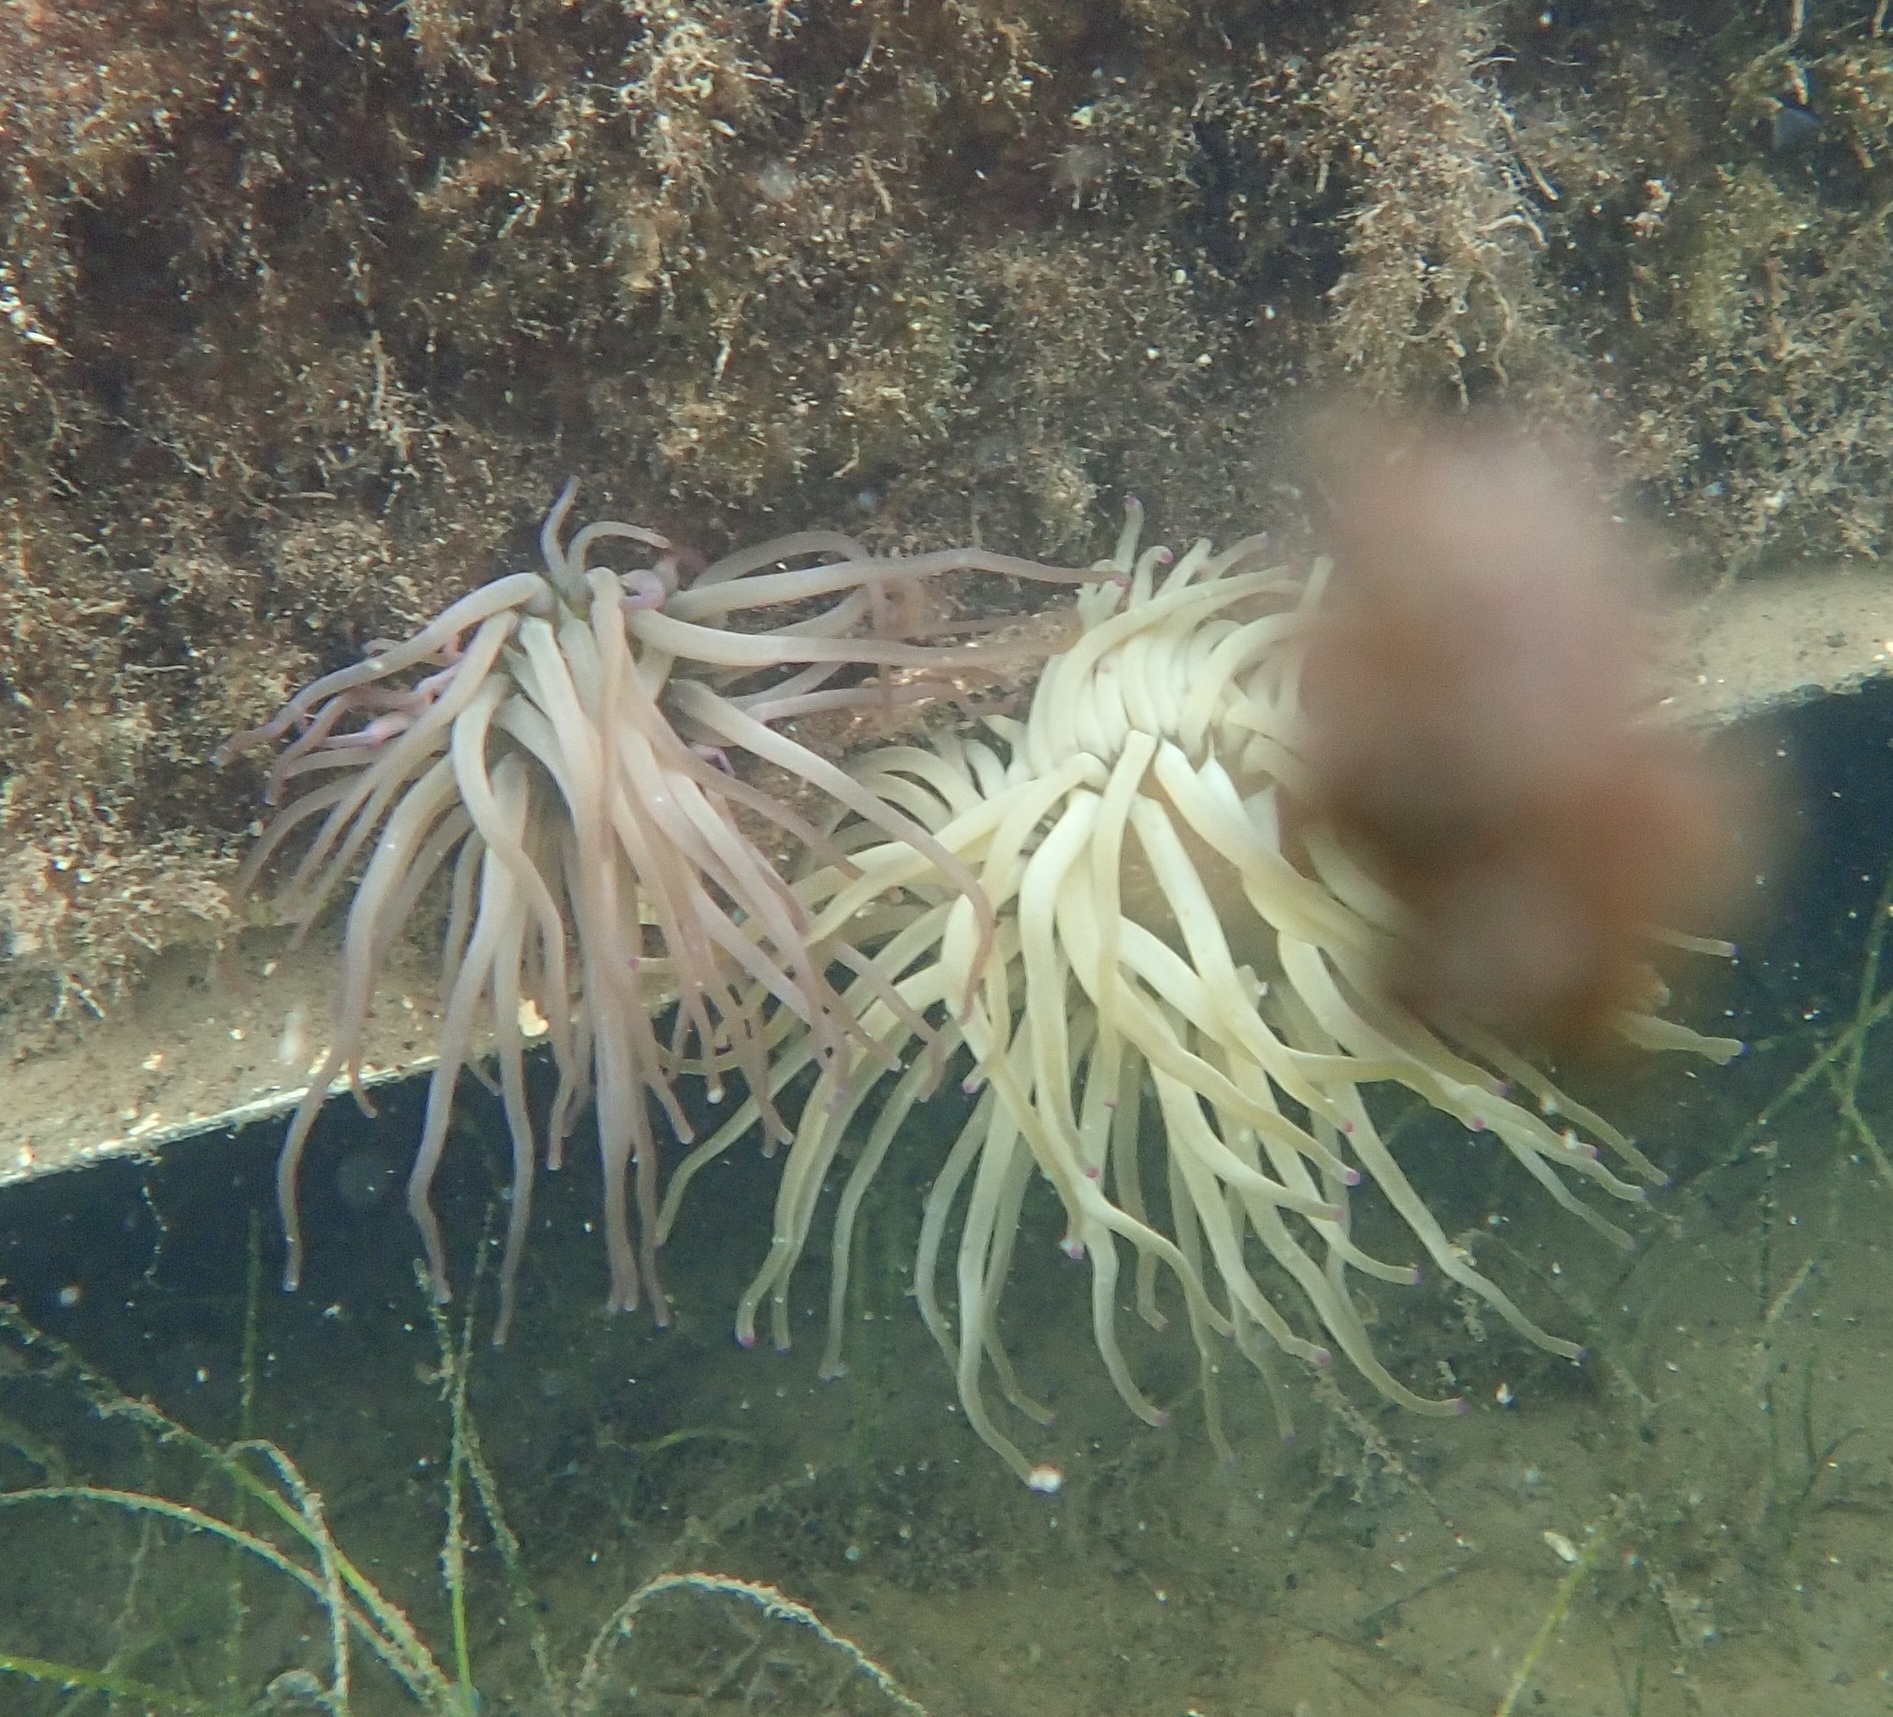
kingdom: Animalia
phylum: Cnidaria
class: Anthozoa
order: Actiniaria
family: Actiniidae
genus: Condylactis
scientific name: Condylactis gigantea
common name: Giant caribbean anemone
